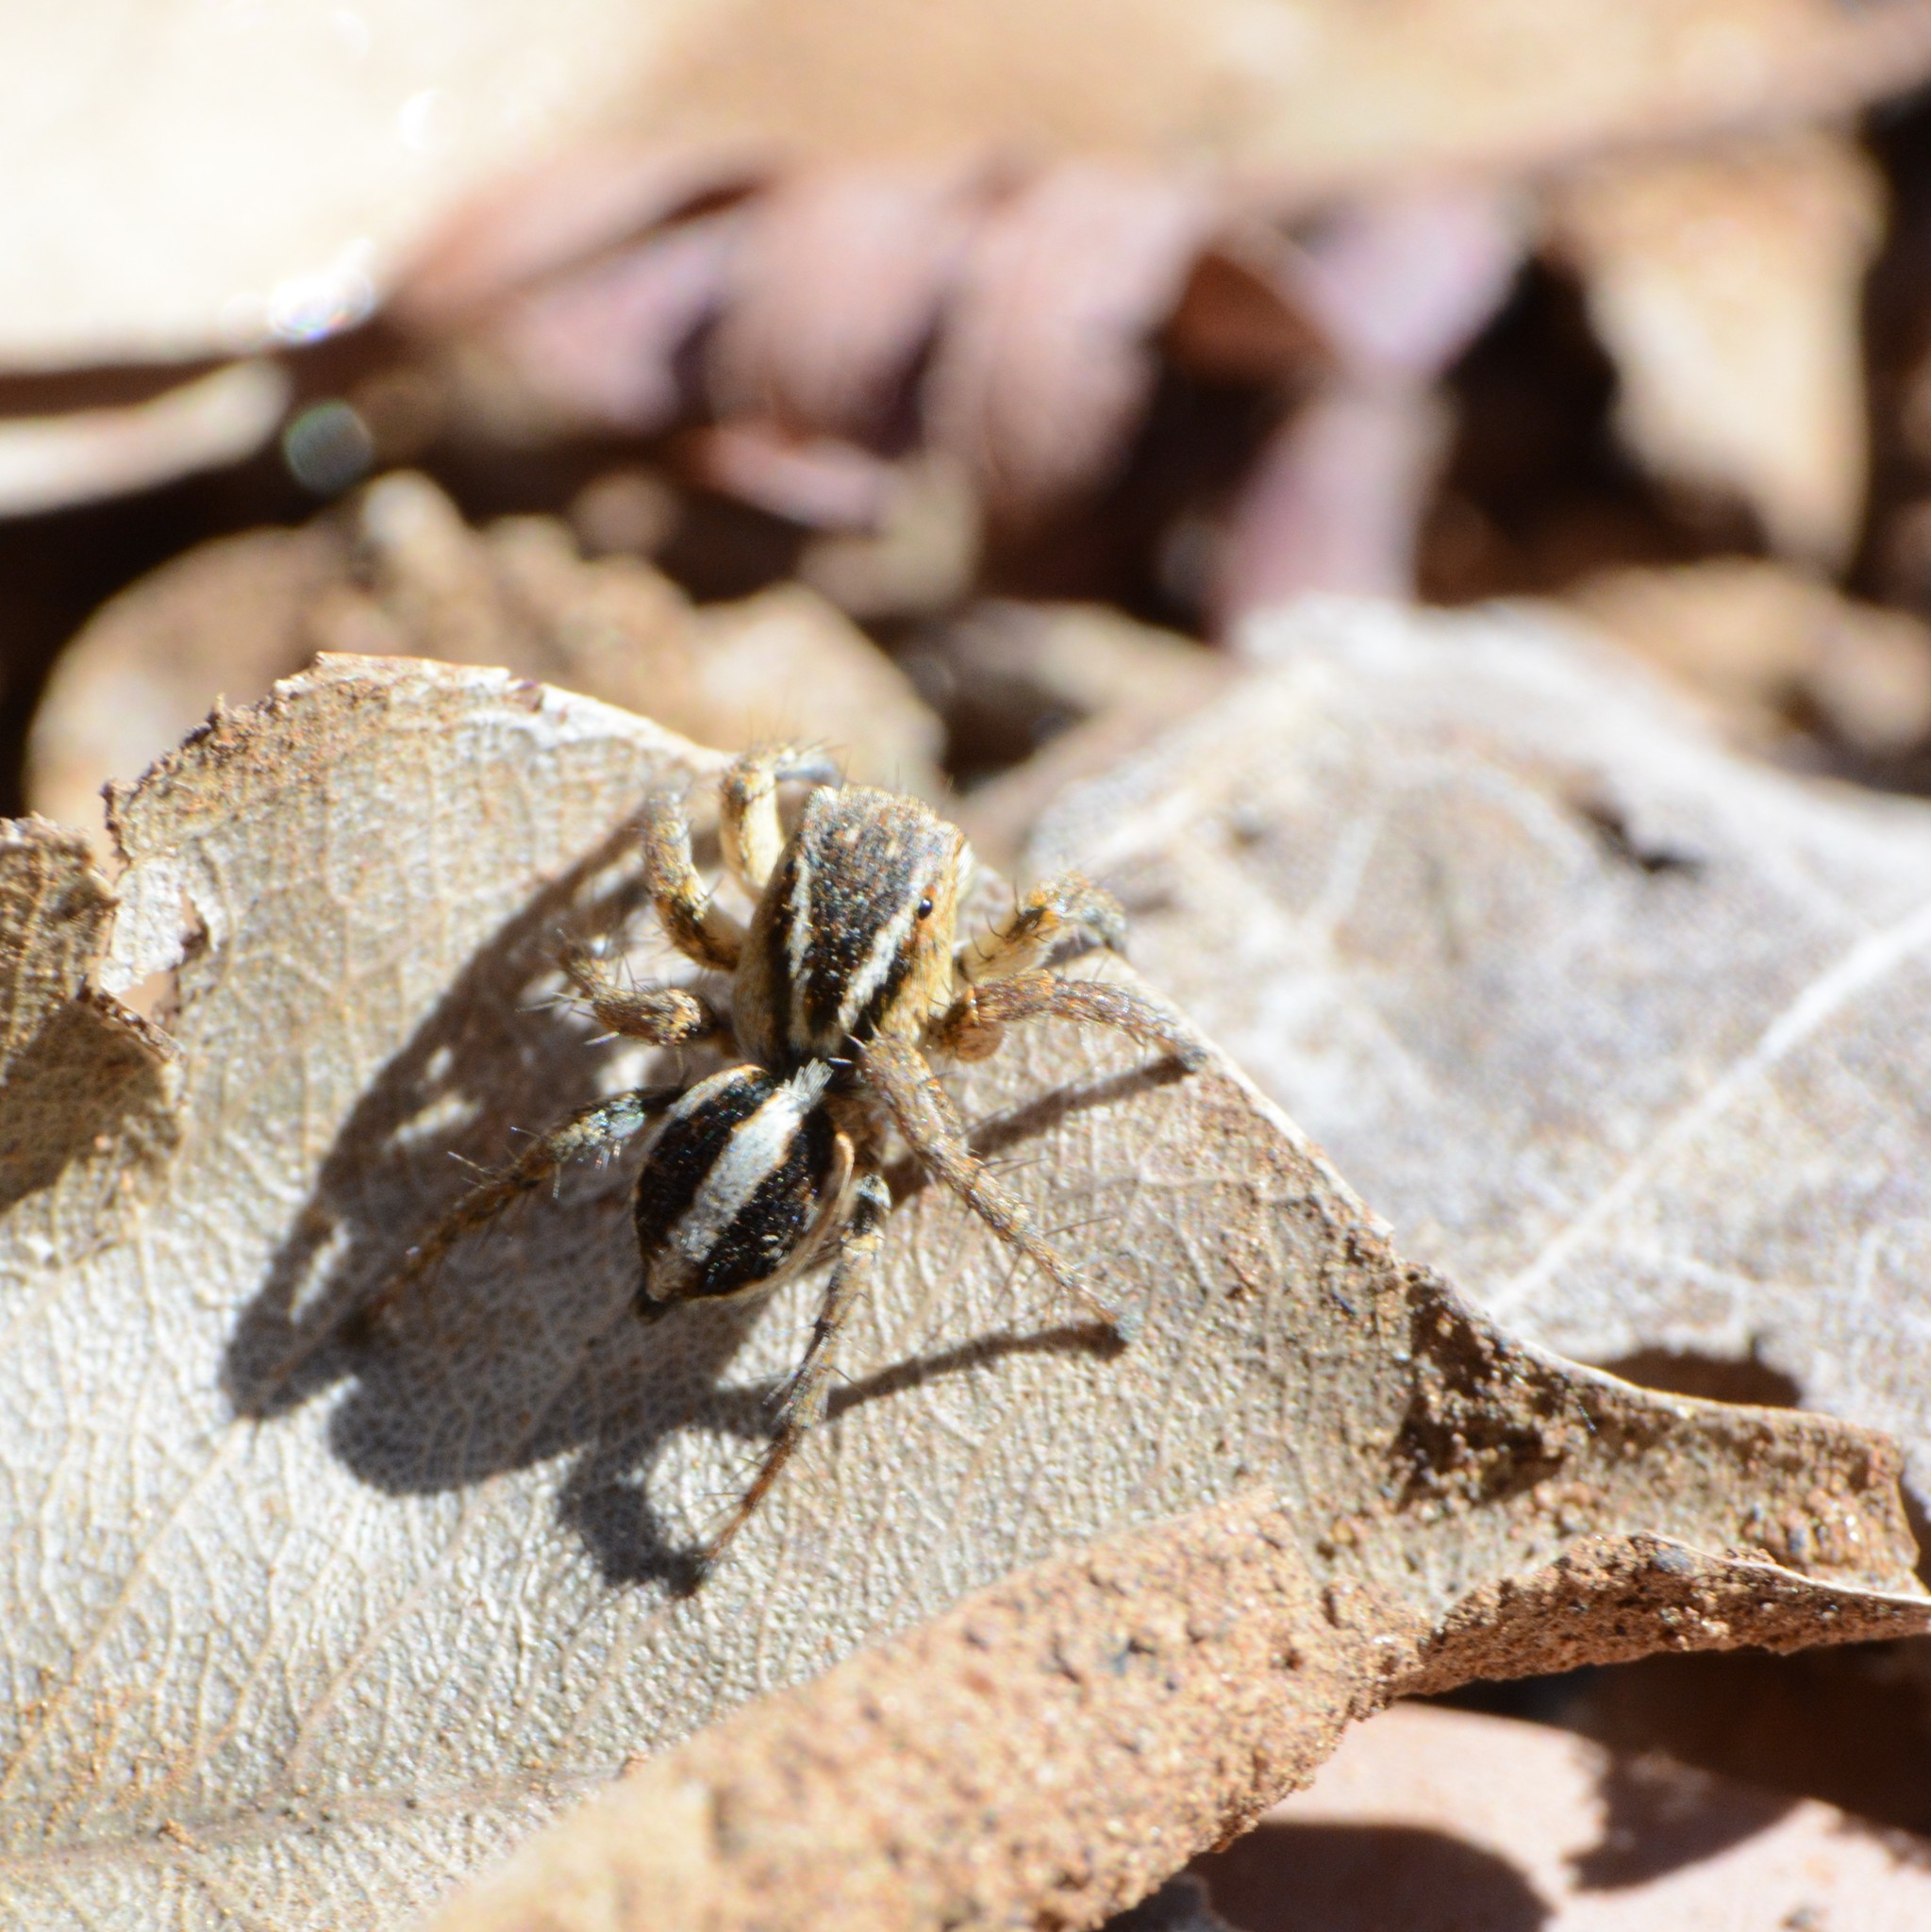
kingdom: Animalia
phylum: Arthropoda
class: Arachnida
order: Araneae
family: Salticidae
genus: Phlegra
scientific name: Phlegra karoo
